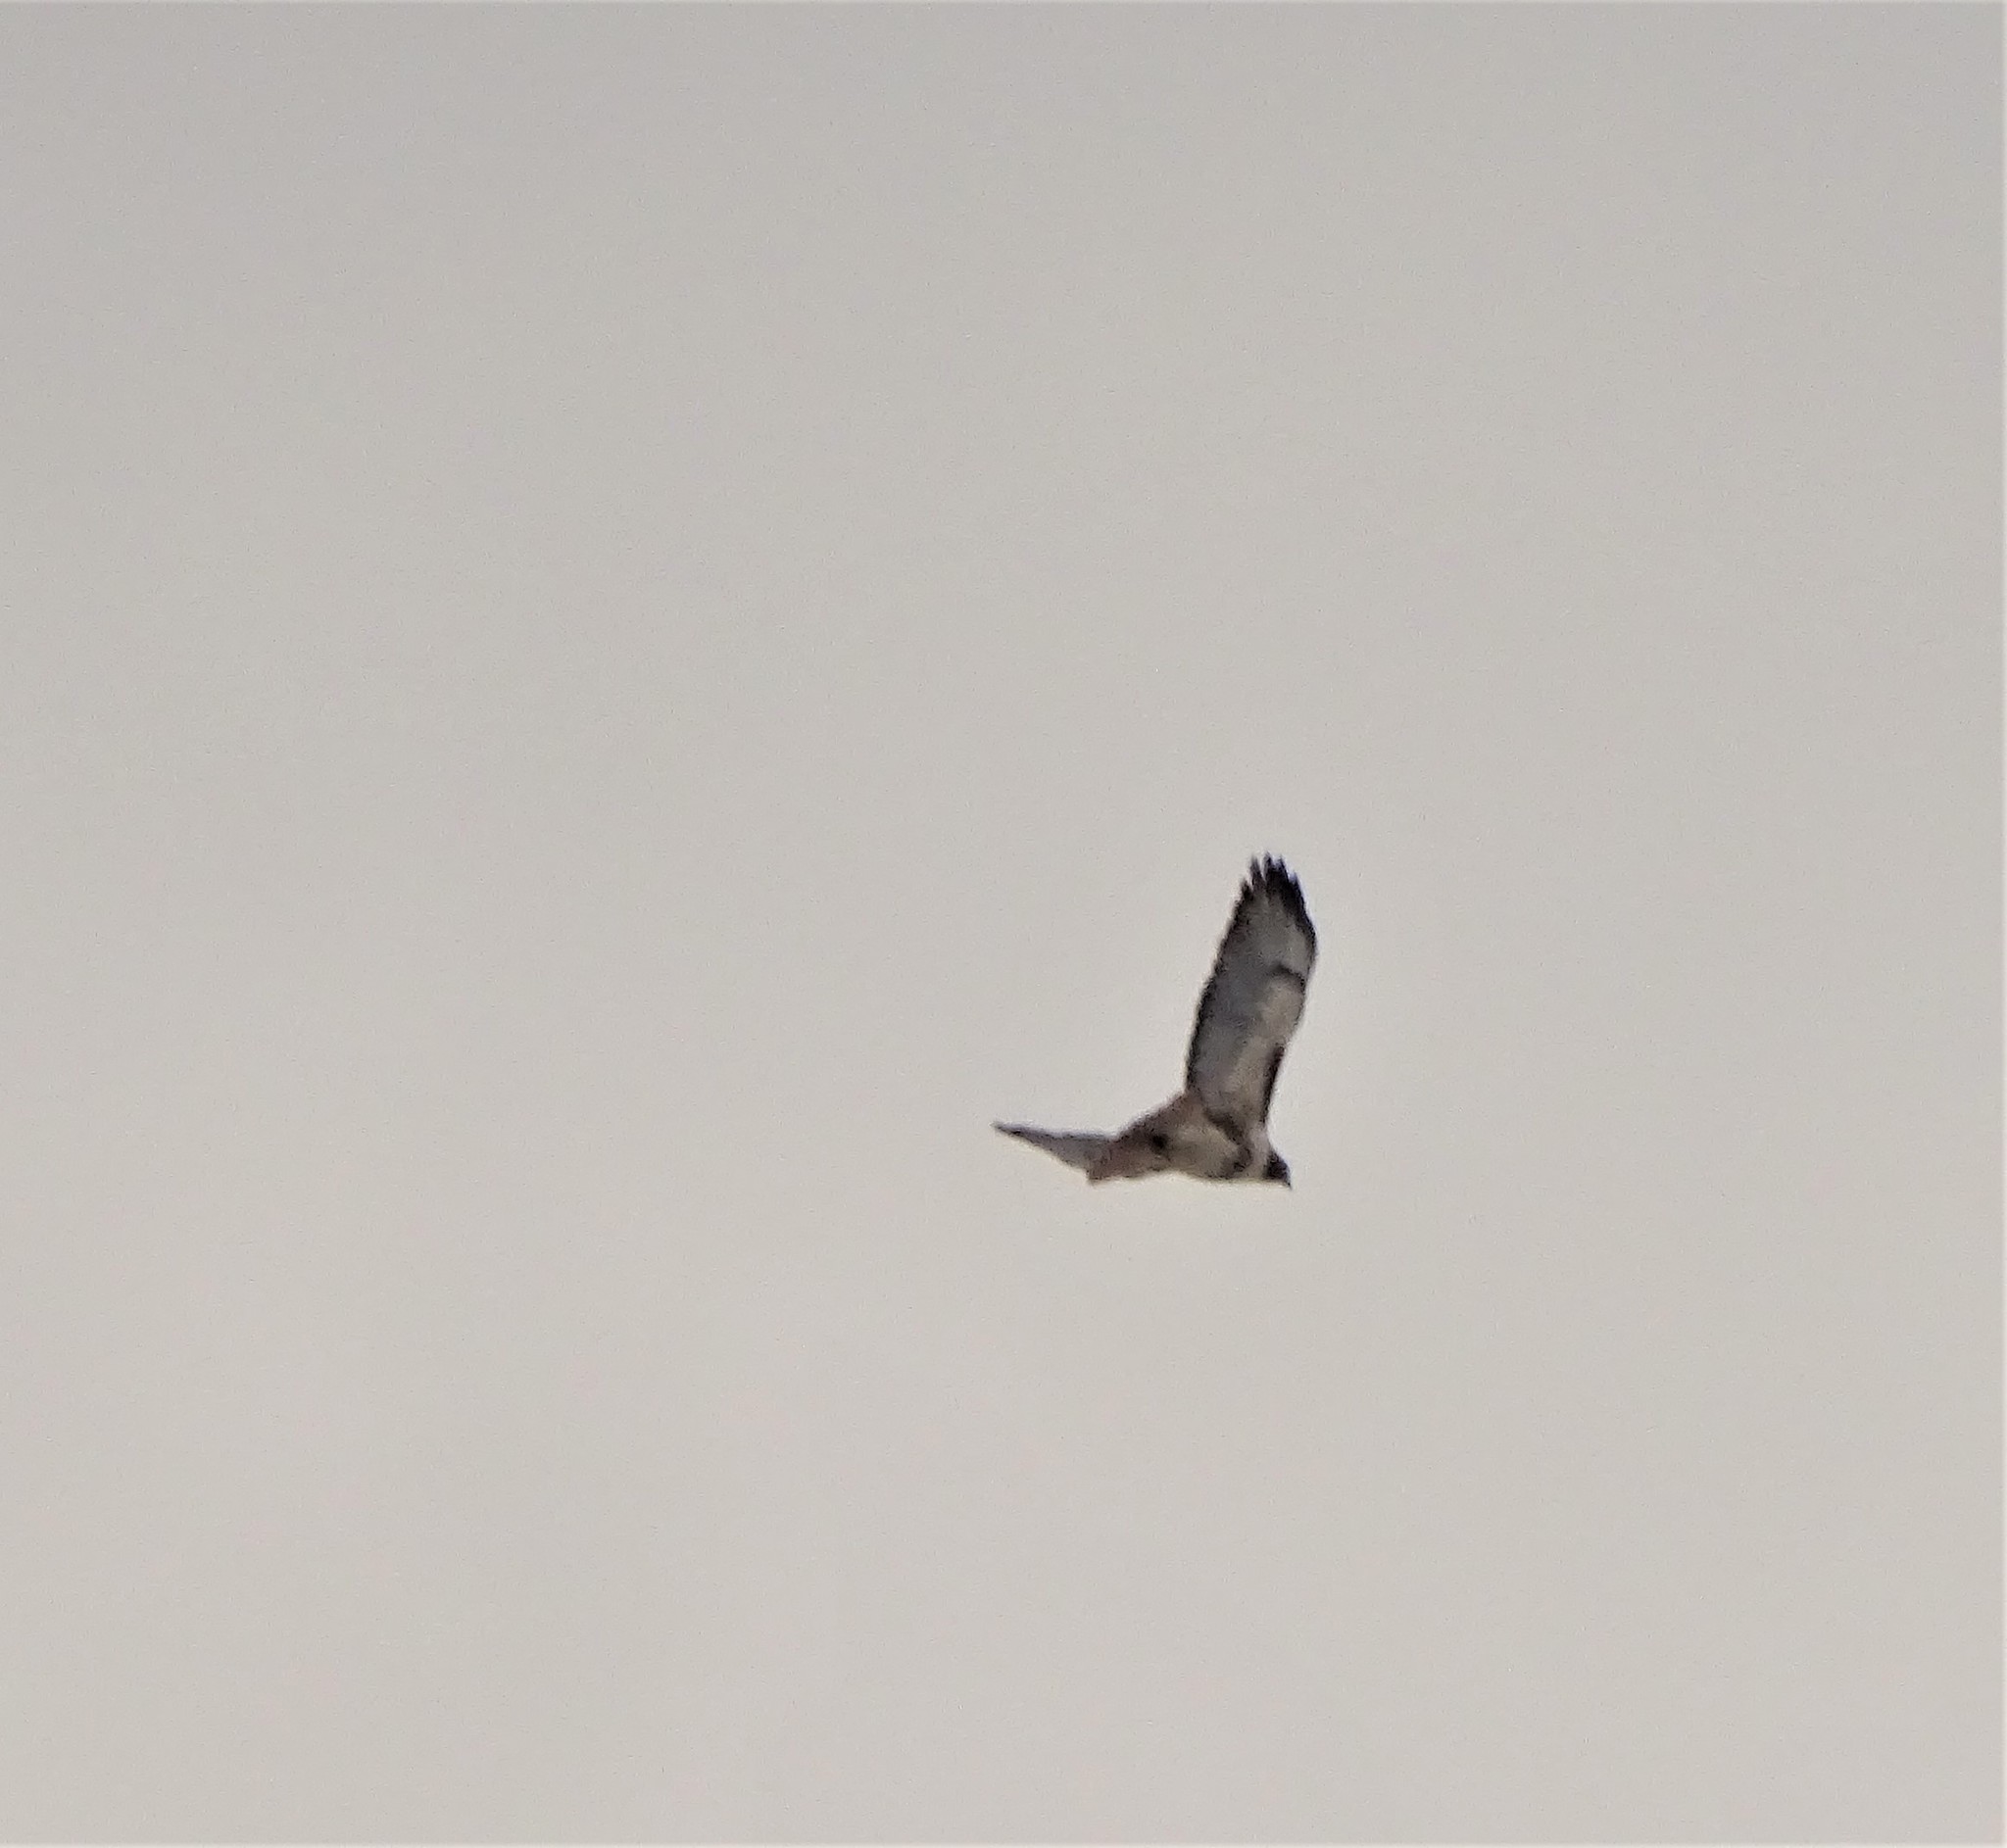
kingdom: Animalia
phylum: Chordata
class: Aves
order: Accipitriformes
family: Accipitridae
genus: Buteo
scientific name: Buteo jamaicensis
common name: Red-tailed hawk
